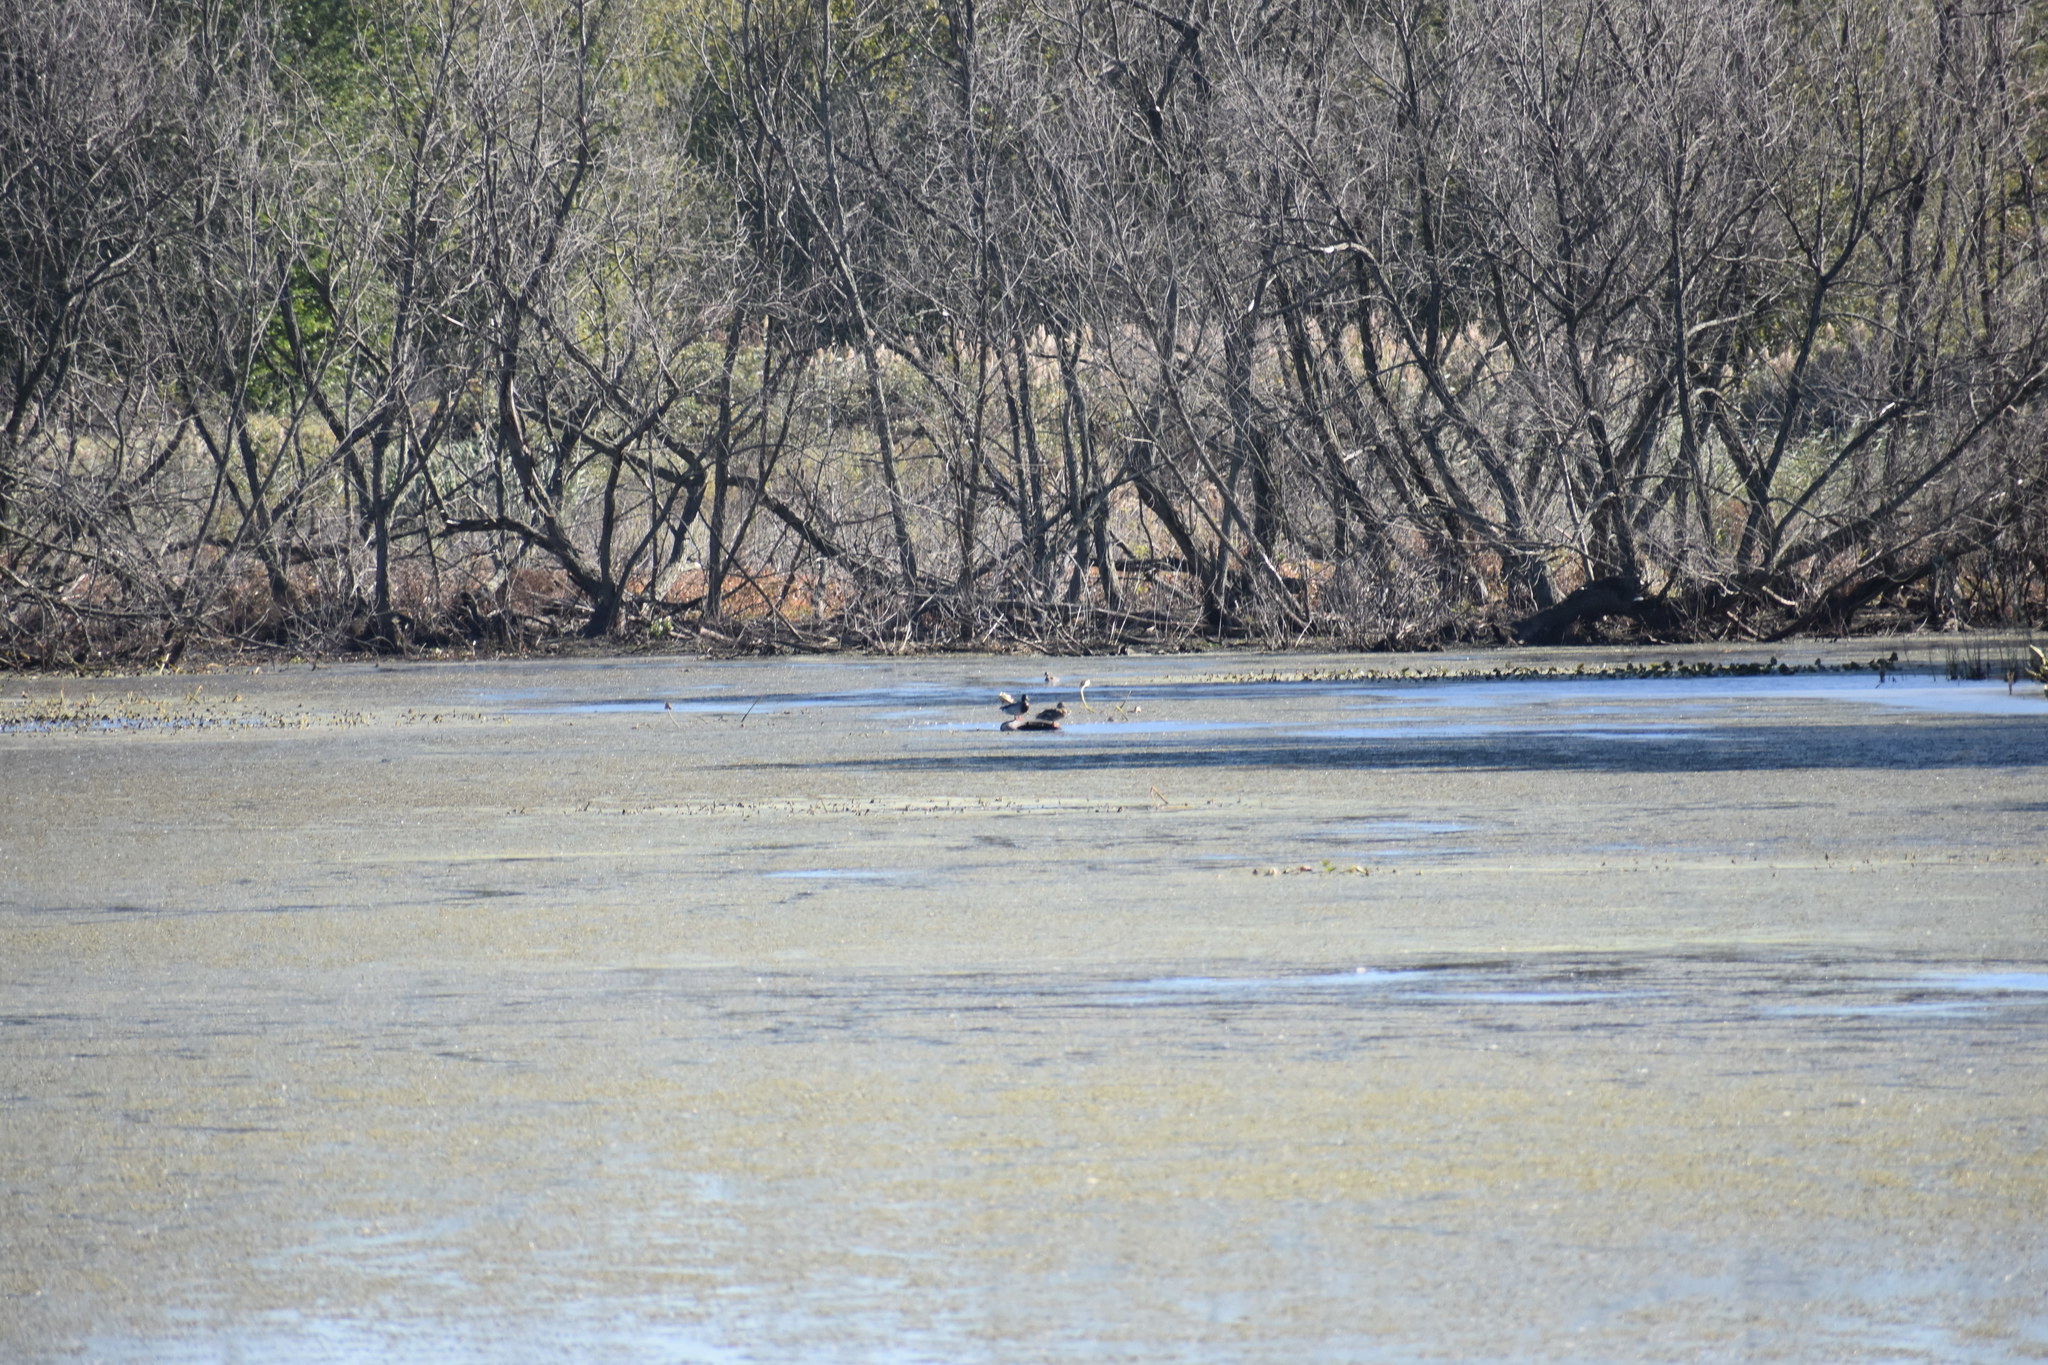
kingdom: Animalia
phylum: Chordata
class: Aves
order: Anseriformes
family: Anatidae
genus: Anas
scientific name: Anas platyrhynchos
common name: Mallard
